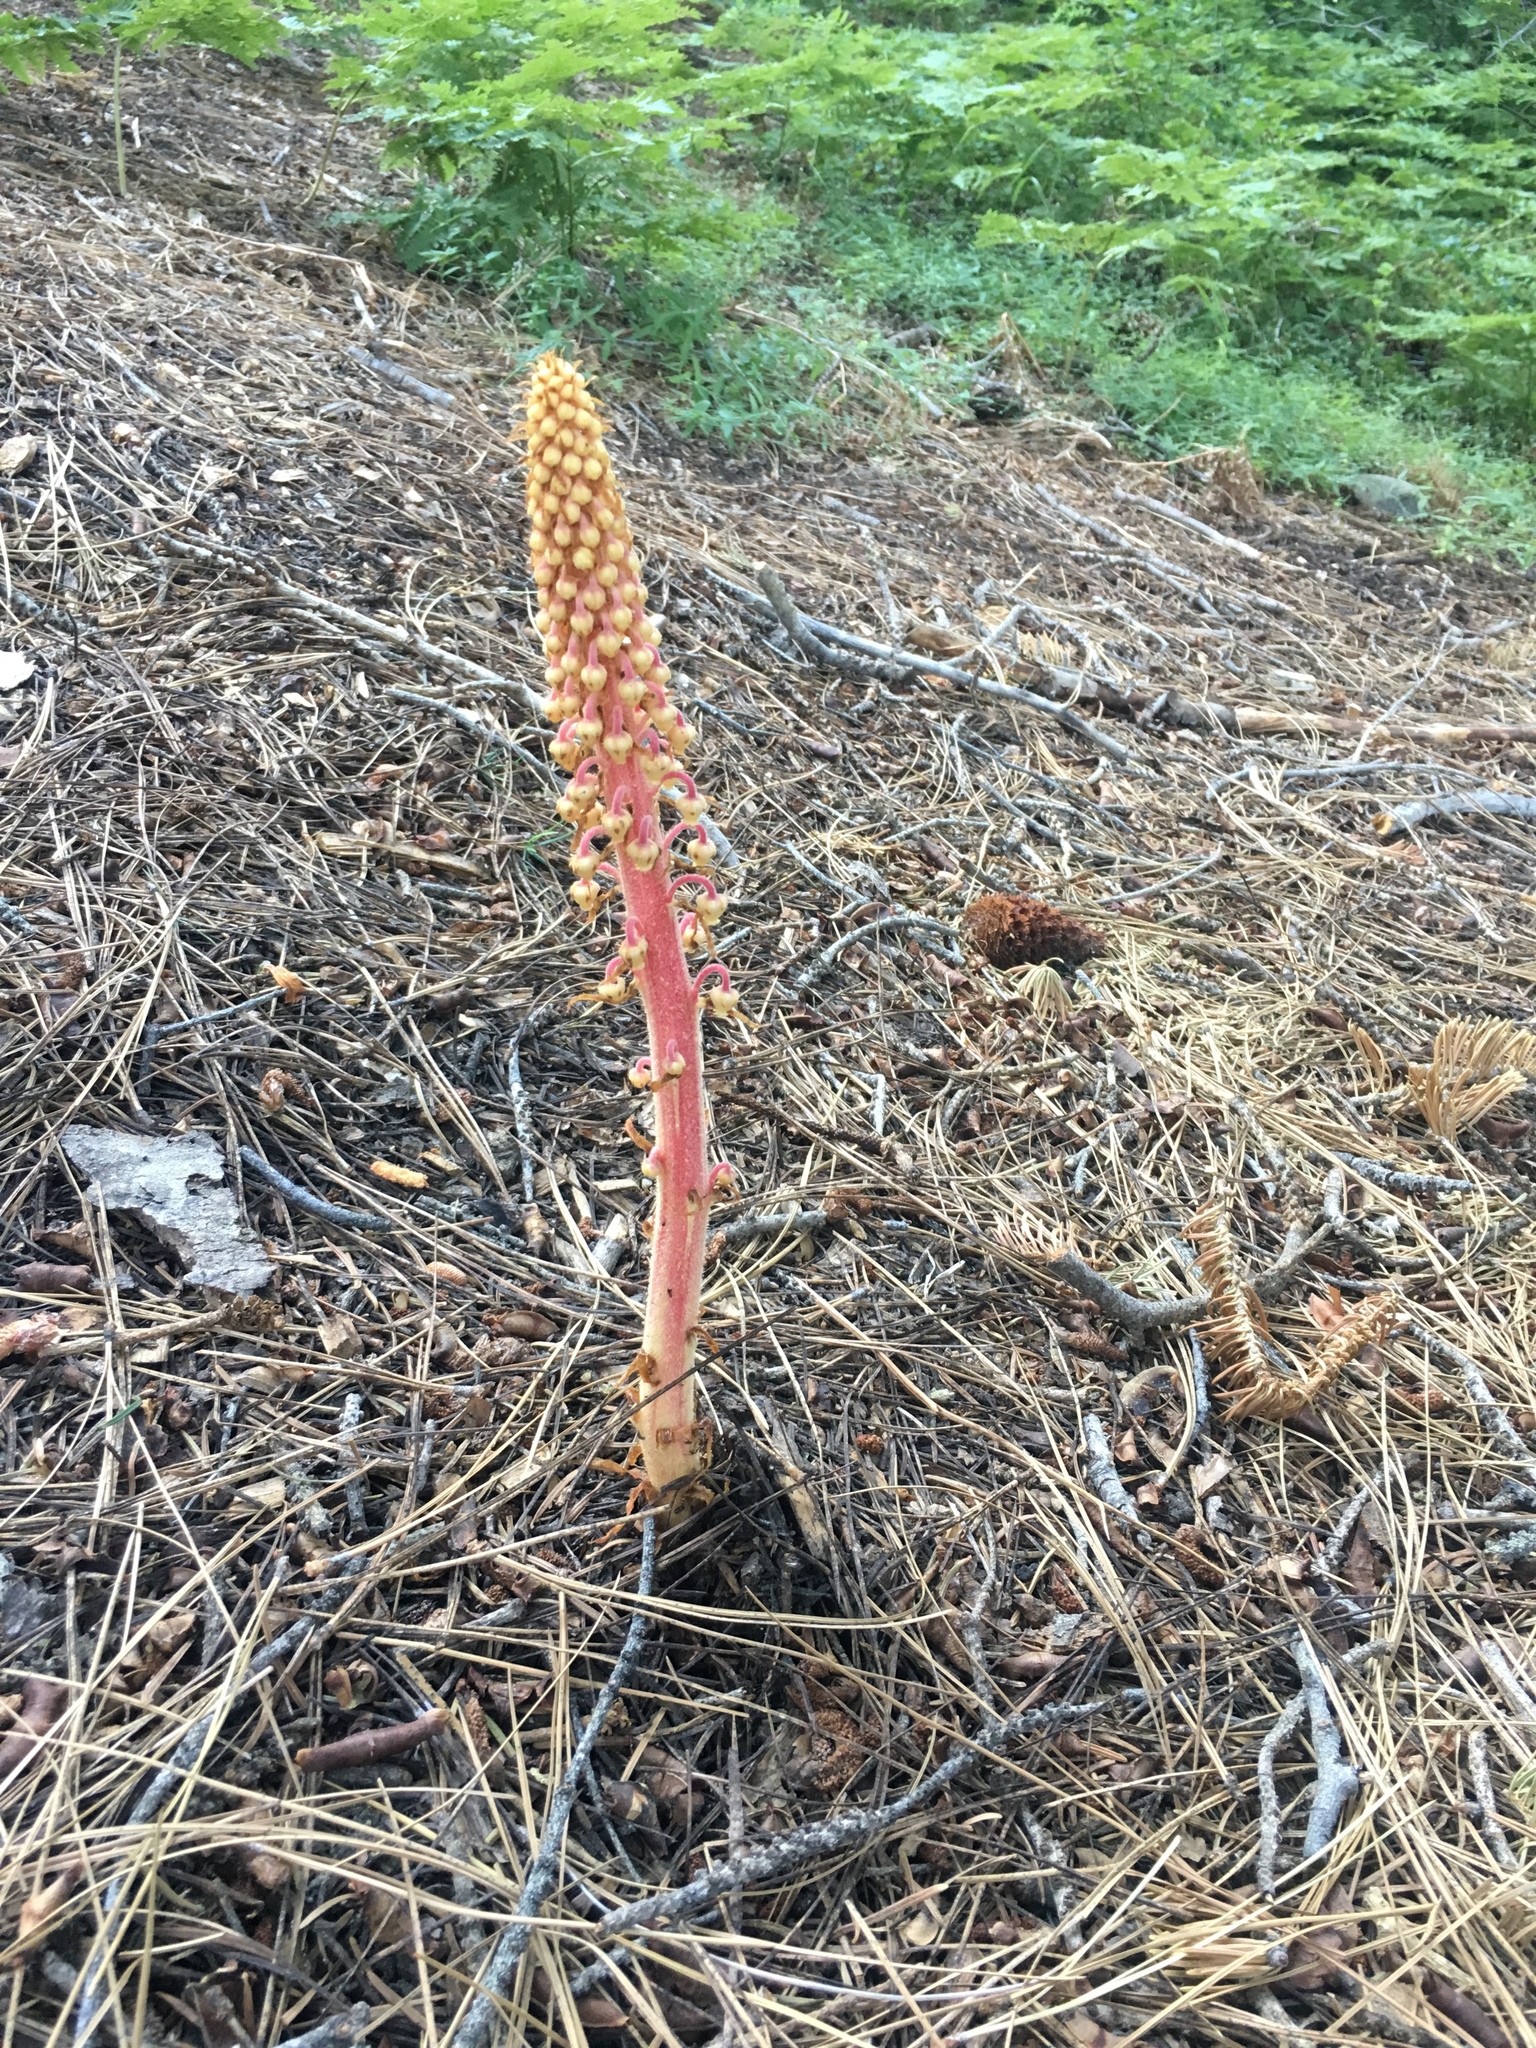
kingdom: Plantae
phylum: Tracheophyta
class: Magnoliopsida
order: Ericales
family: Ericaceae
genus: Pterospora
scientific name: Pterospora andromedea
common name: Giant bird's-nest
